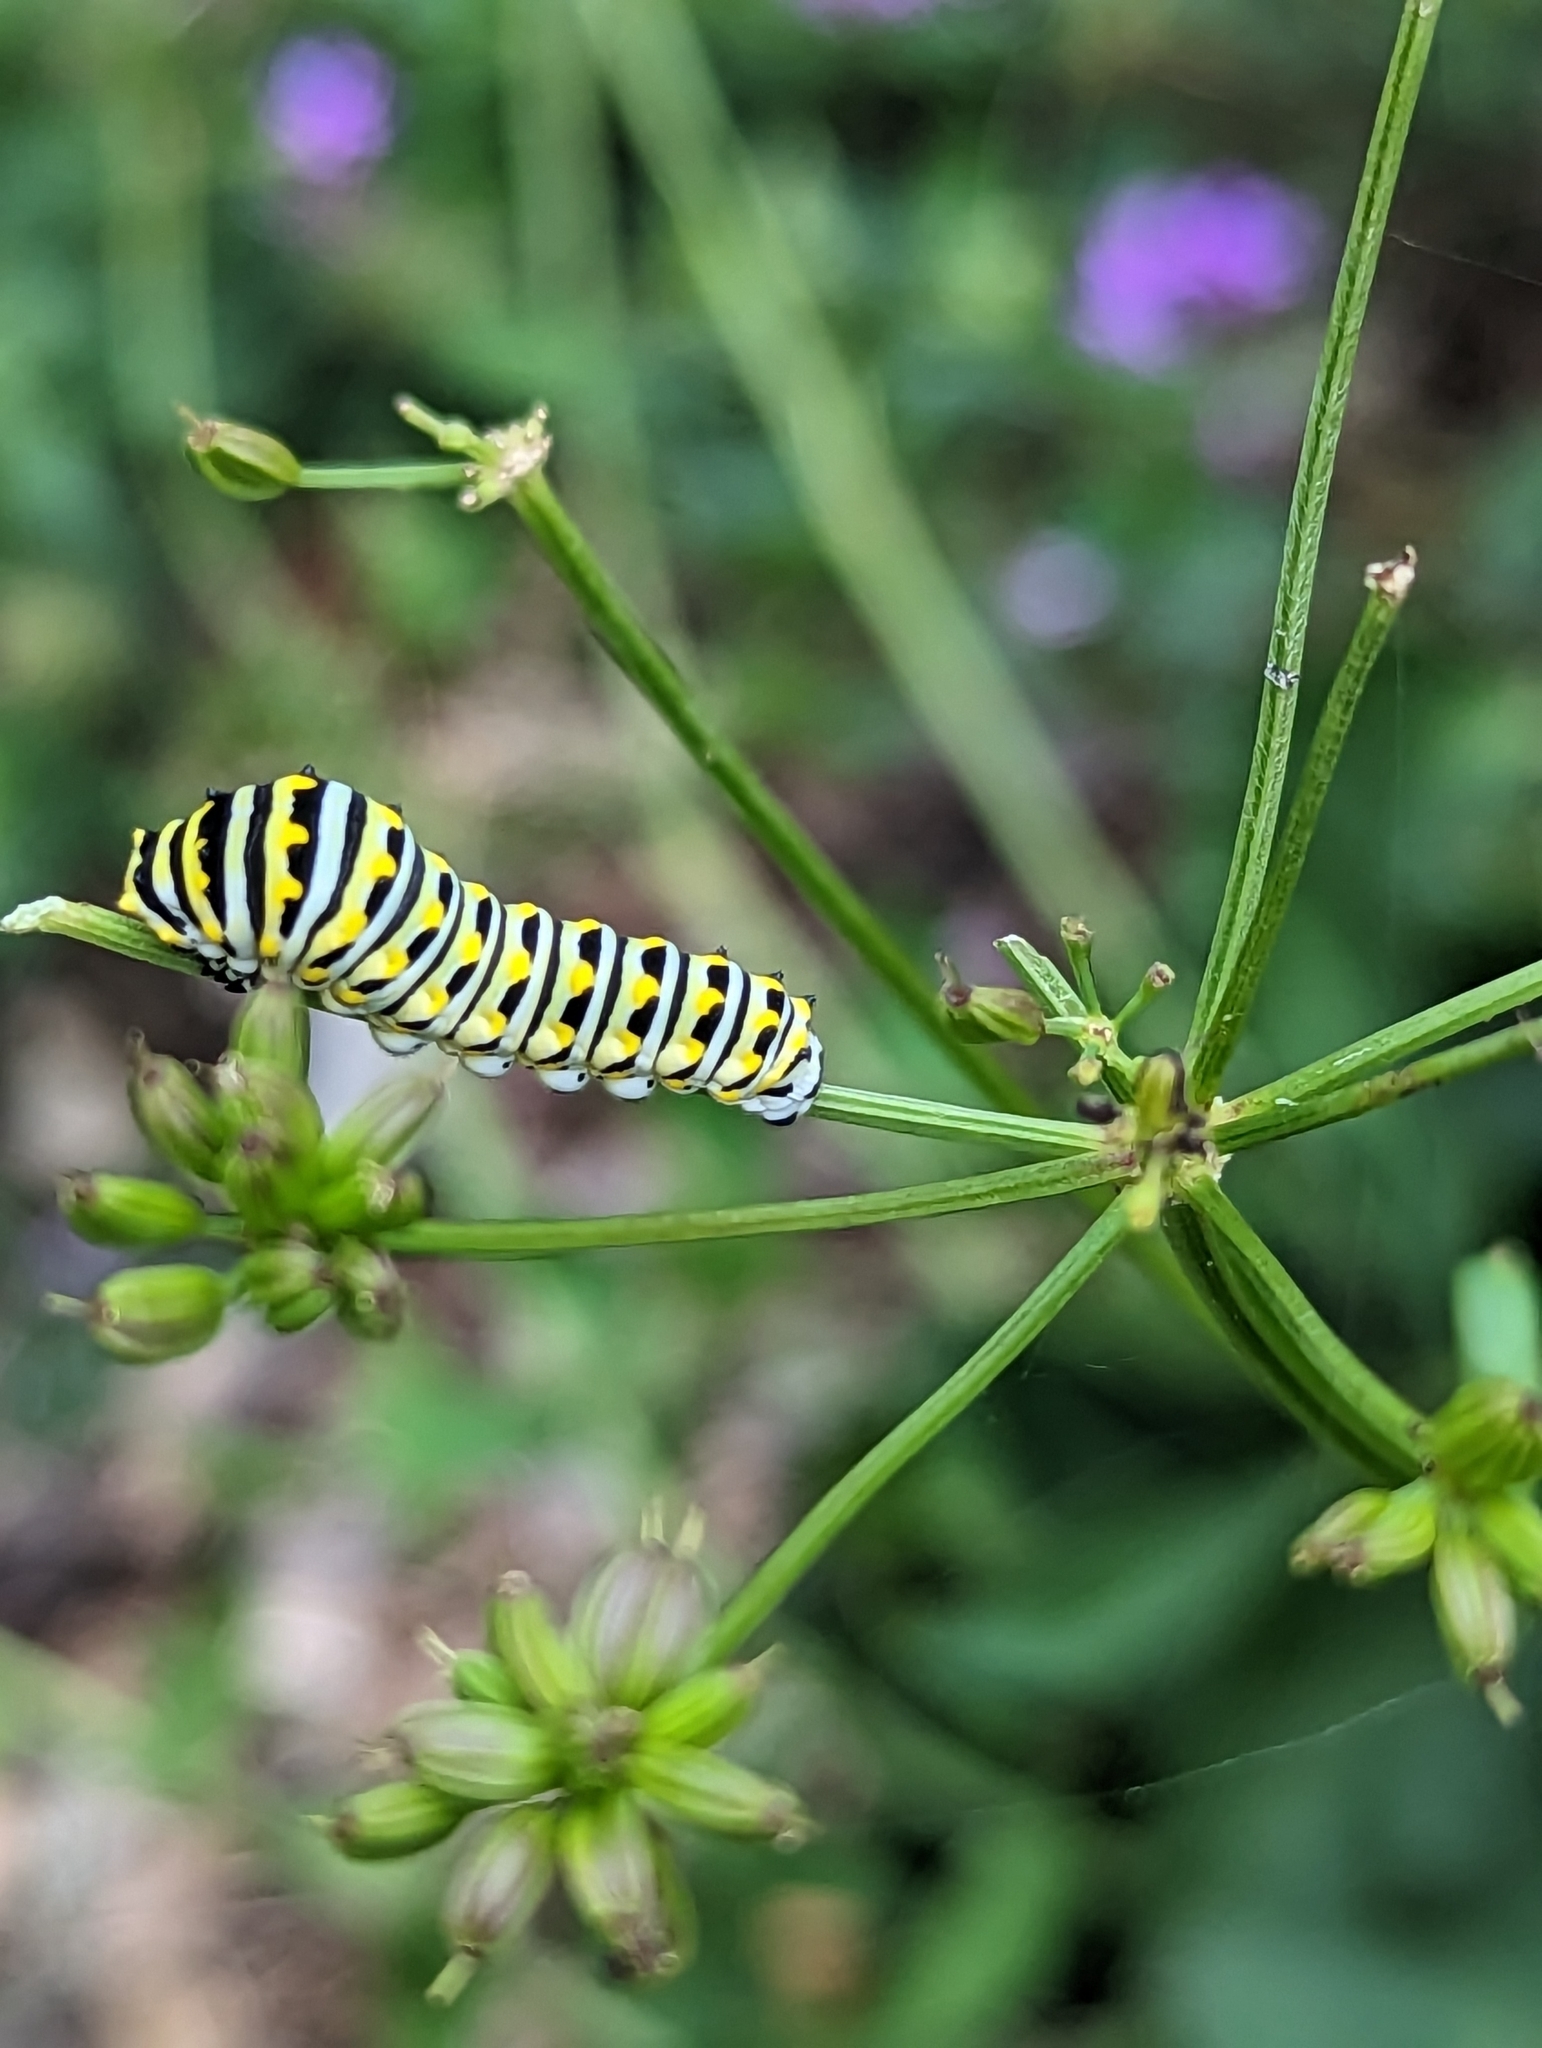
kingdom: Animalia
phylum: Arthropoda
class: Insecta
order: Lepidoptera
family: Papilionidae
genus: Papilio
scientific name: Papilio polyxenes
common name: Black swallowtail
